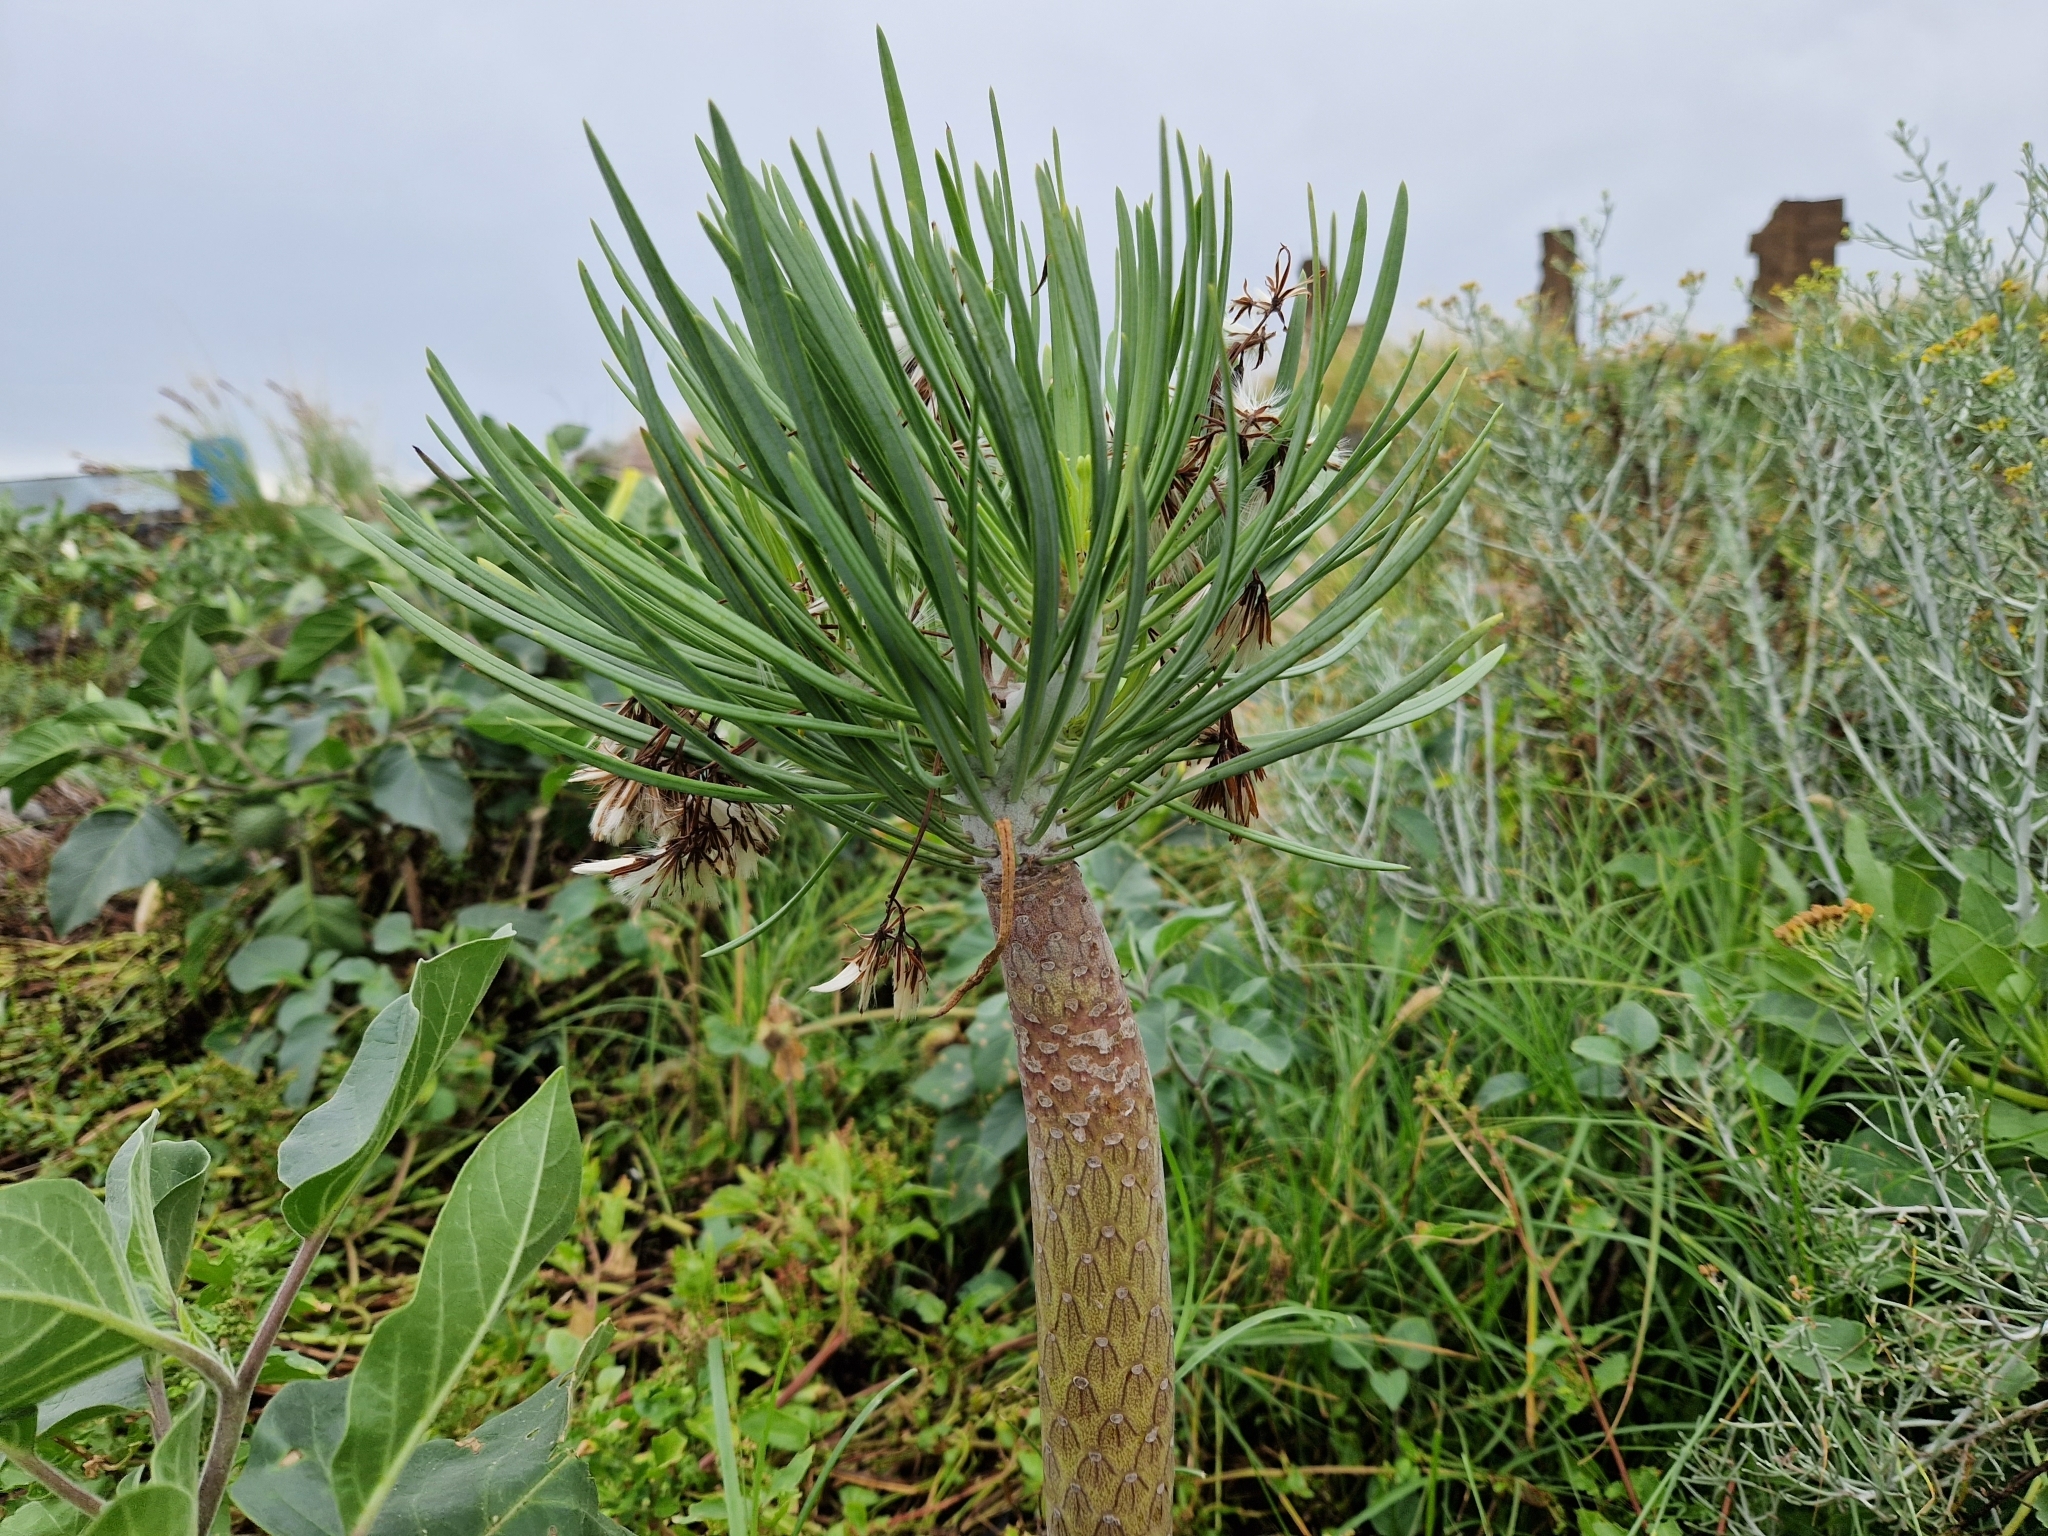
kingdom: Plantae
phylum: Tracheophyta
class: Magnoliopsida
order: Asterales
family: Asteraceae
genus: Kleinia
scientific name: Kleinia neriifolia
